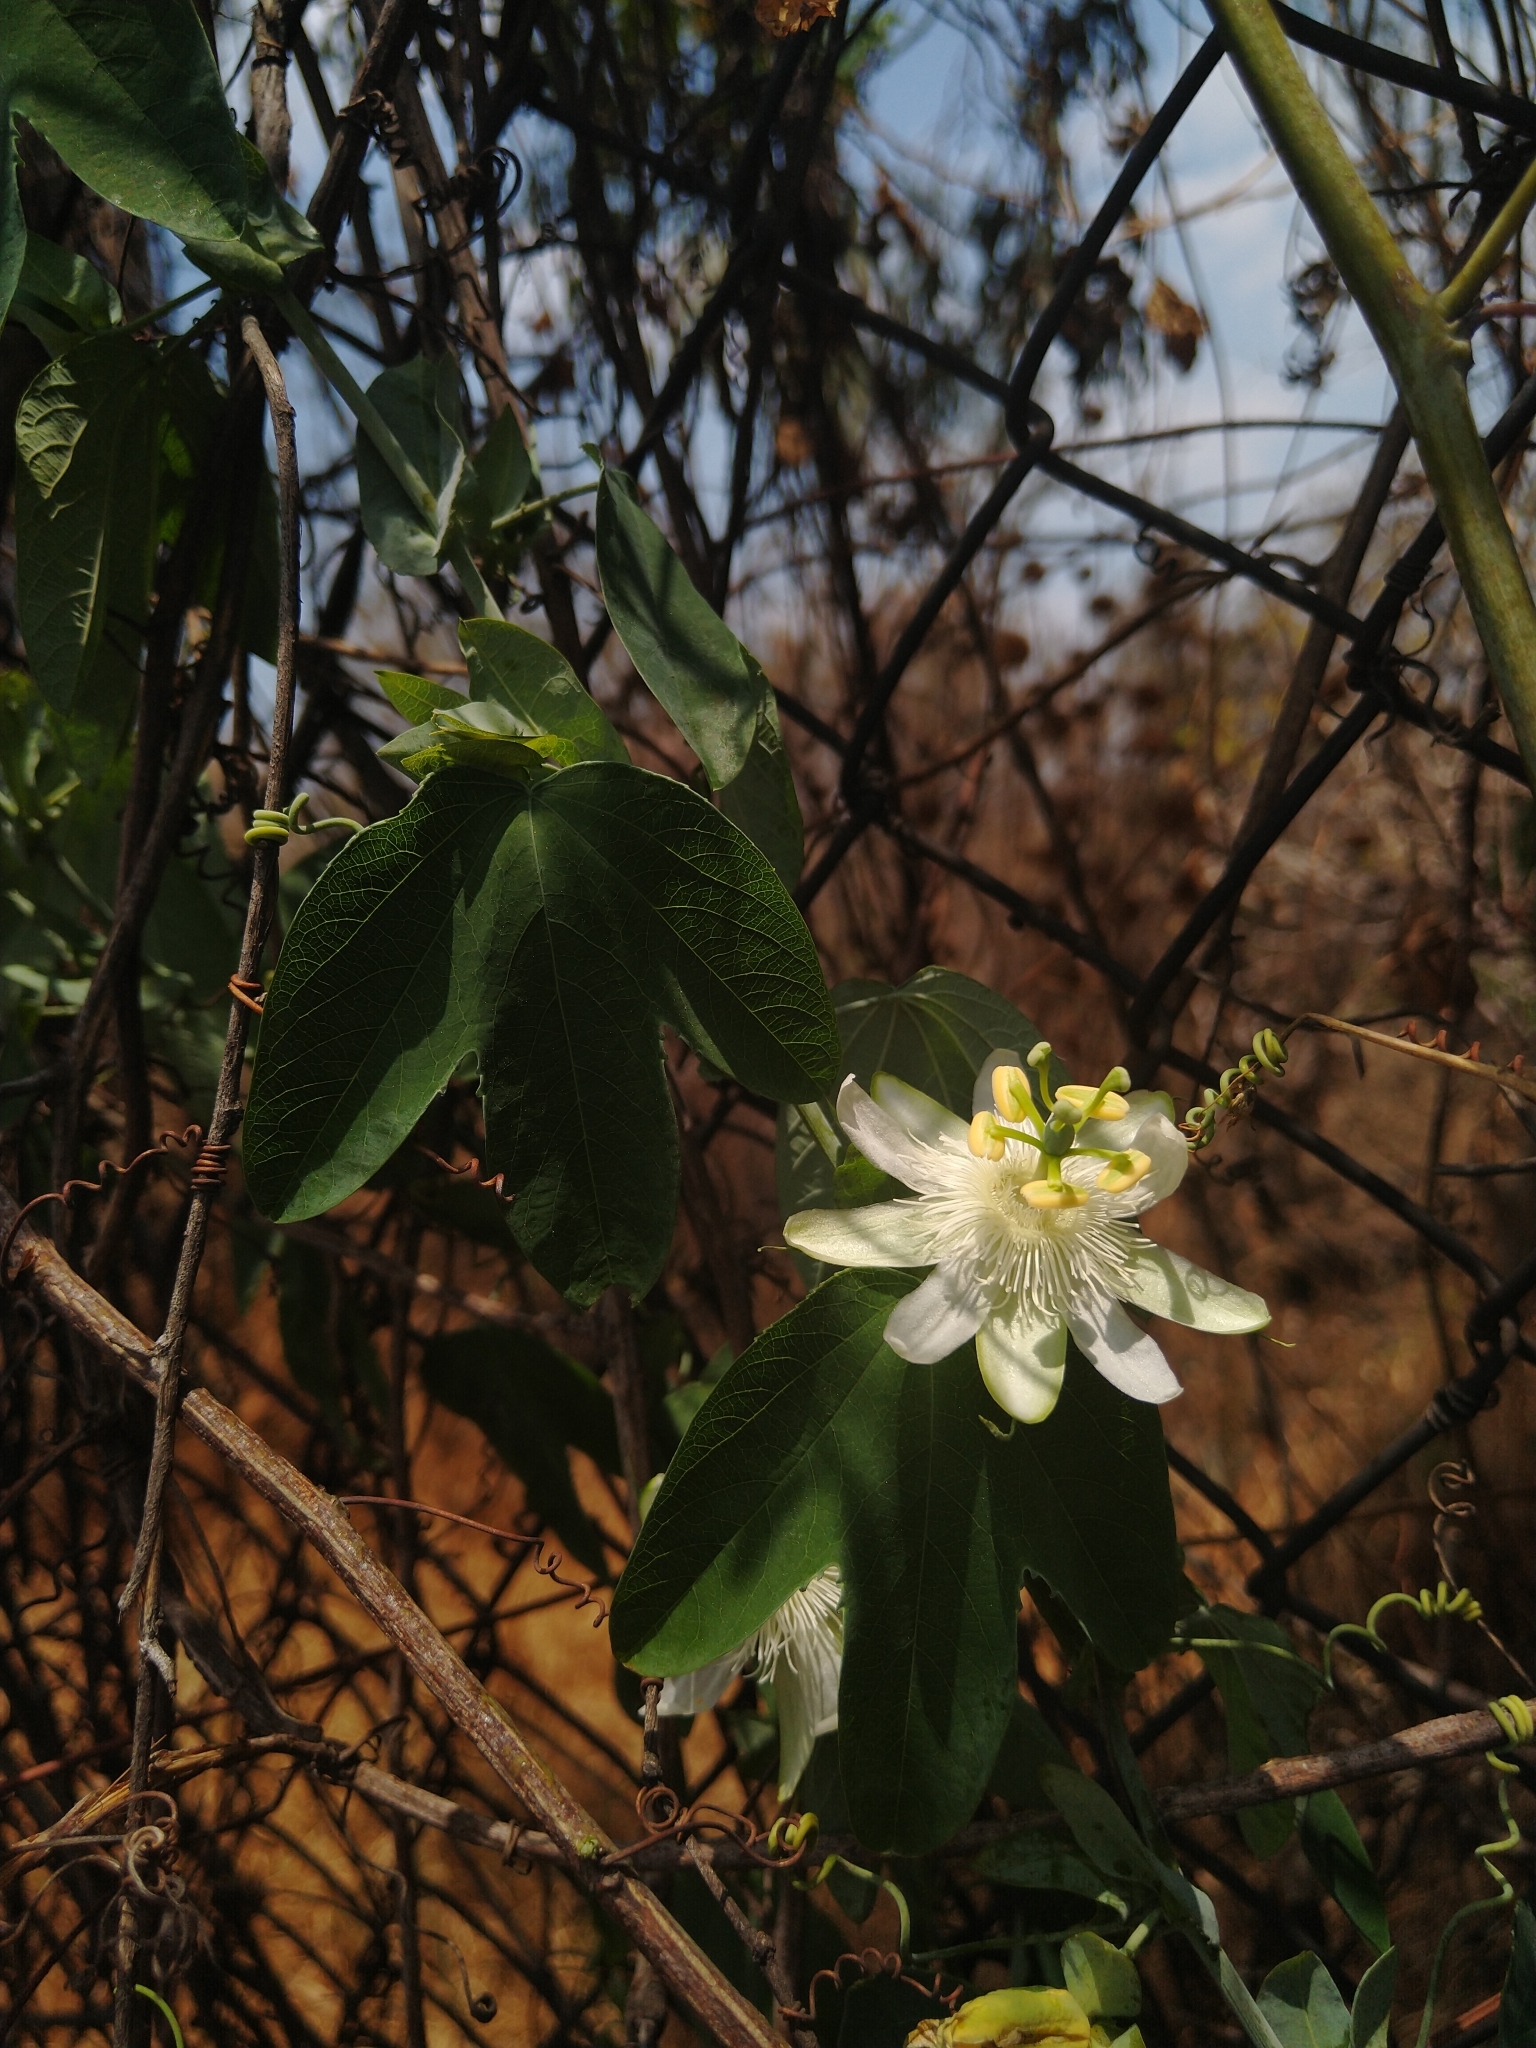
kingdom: Plantae
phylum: Tracheophyta
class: Magnoliopsida
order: Malpighiales
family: Passifloraceae
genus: Passiflora
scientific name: Passiflora subpeltata
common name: White passionflower
